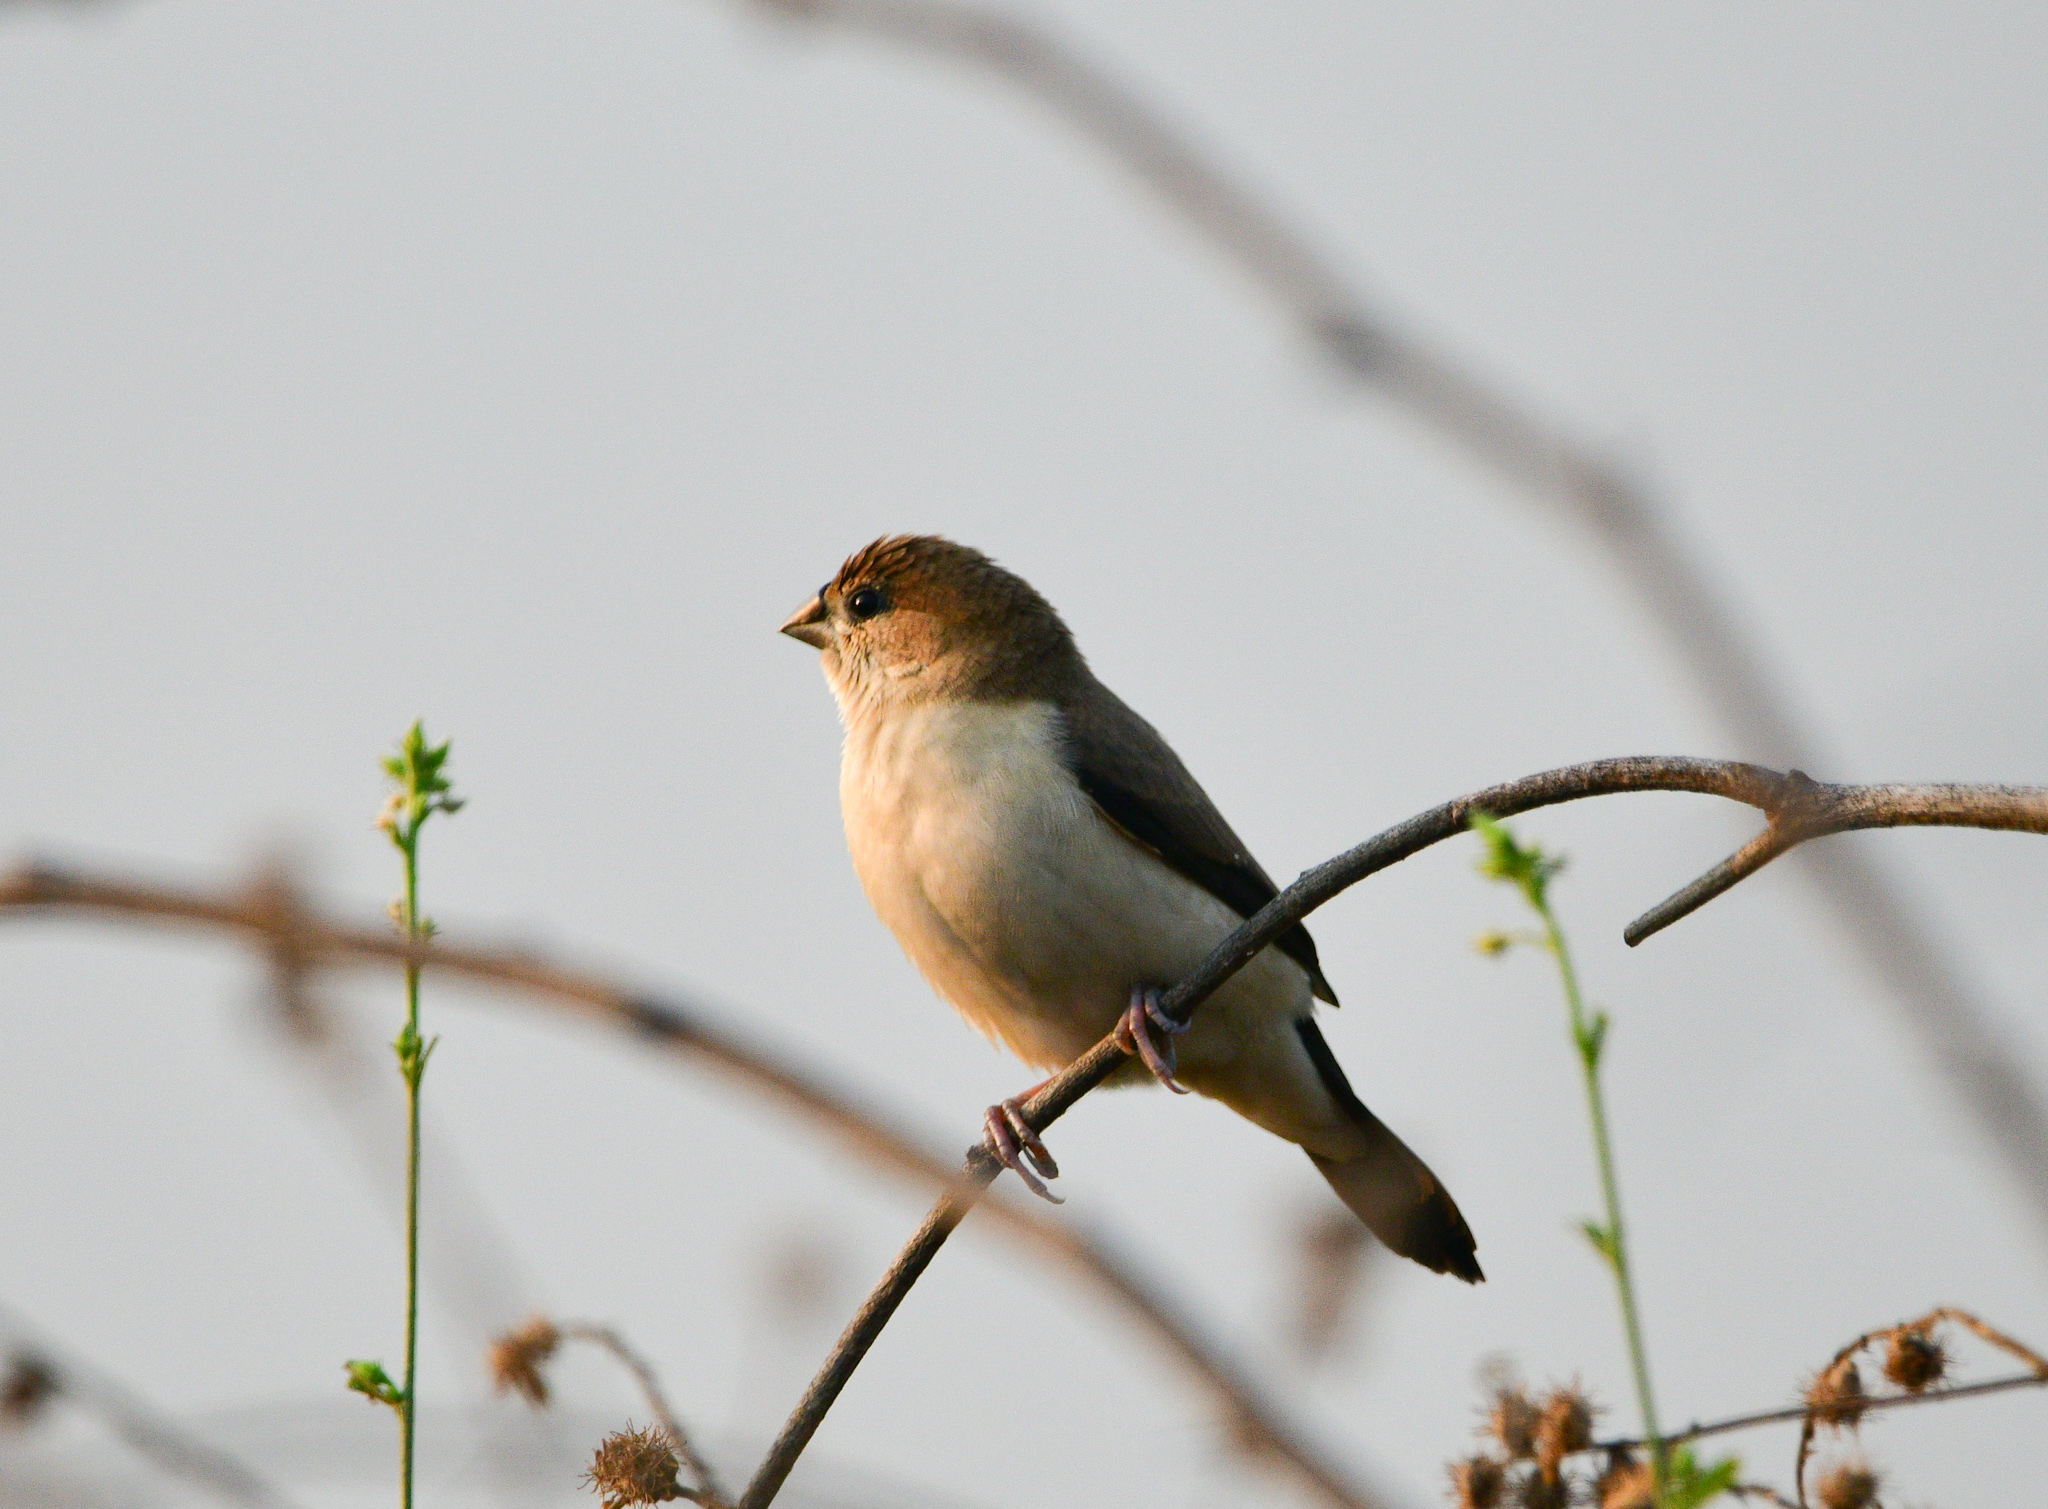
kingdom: Animalia
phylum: Chordata
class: Aves
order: Passeriformes
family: Estrildidae
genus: Euodice
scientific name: Euodice malabarica
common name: Indian silverbill
